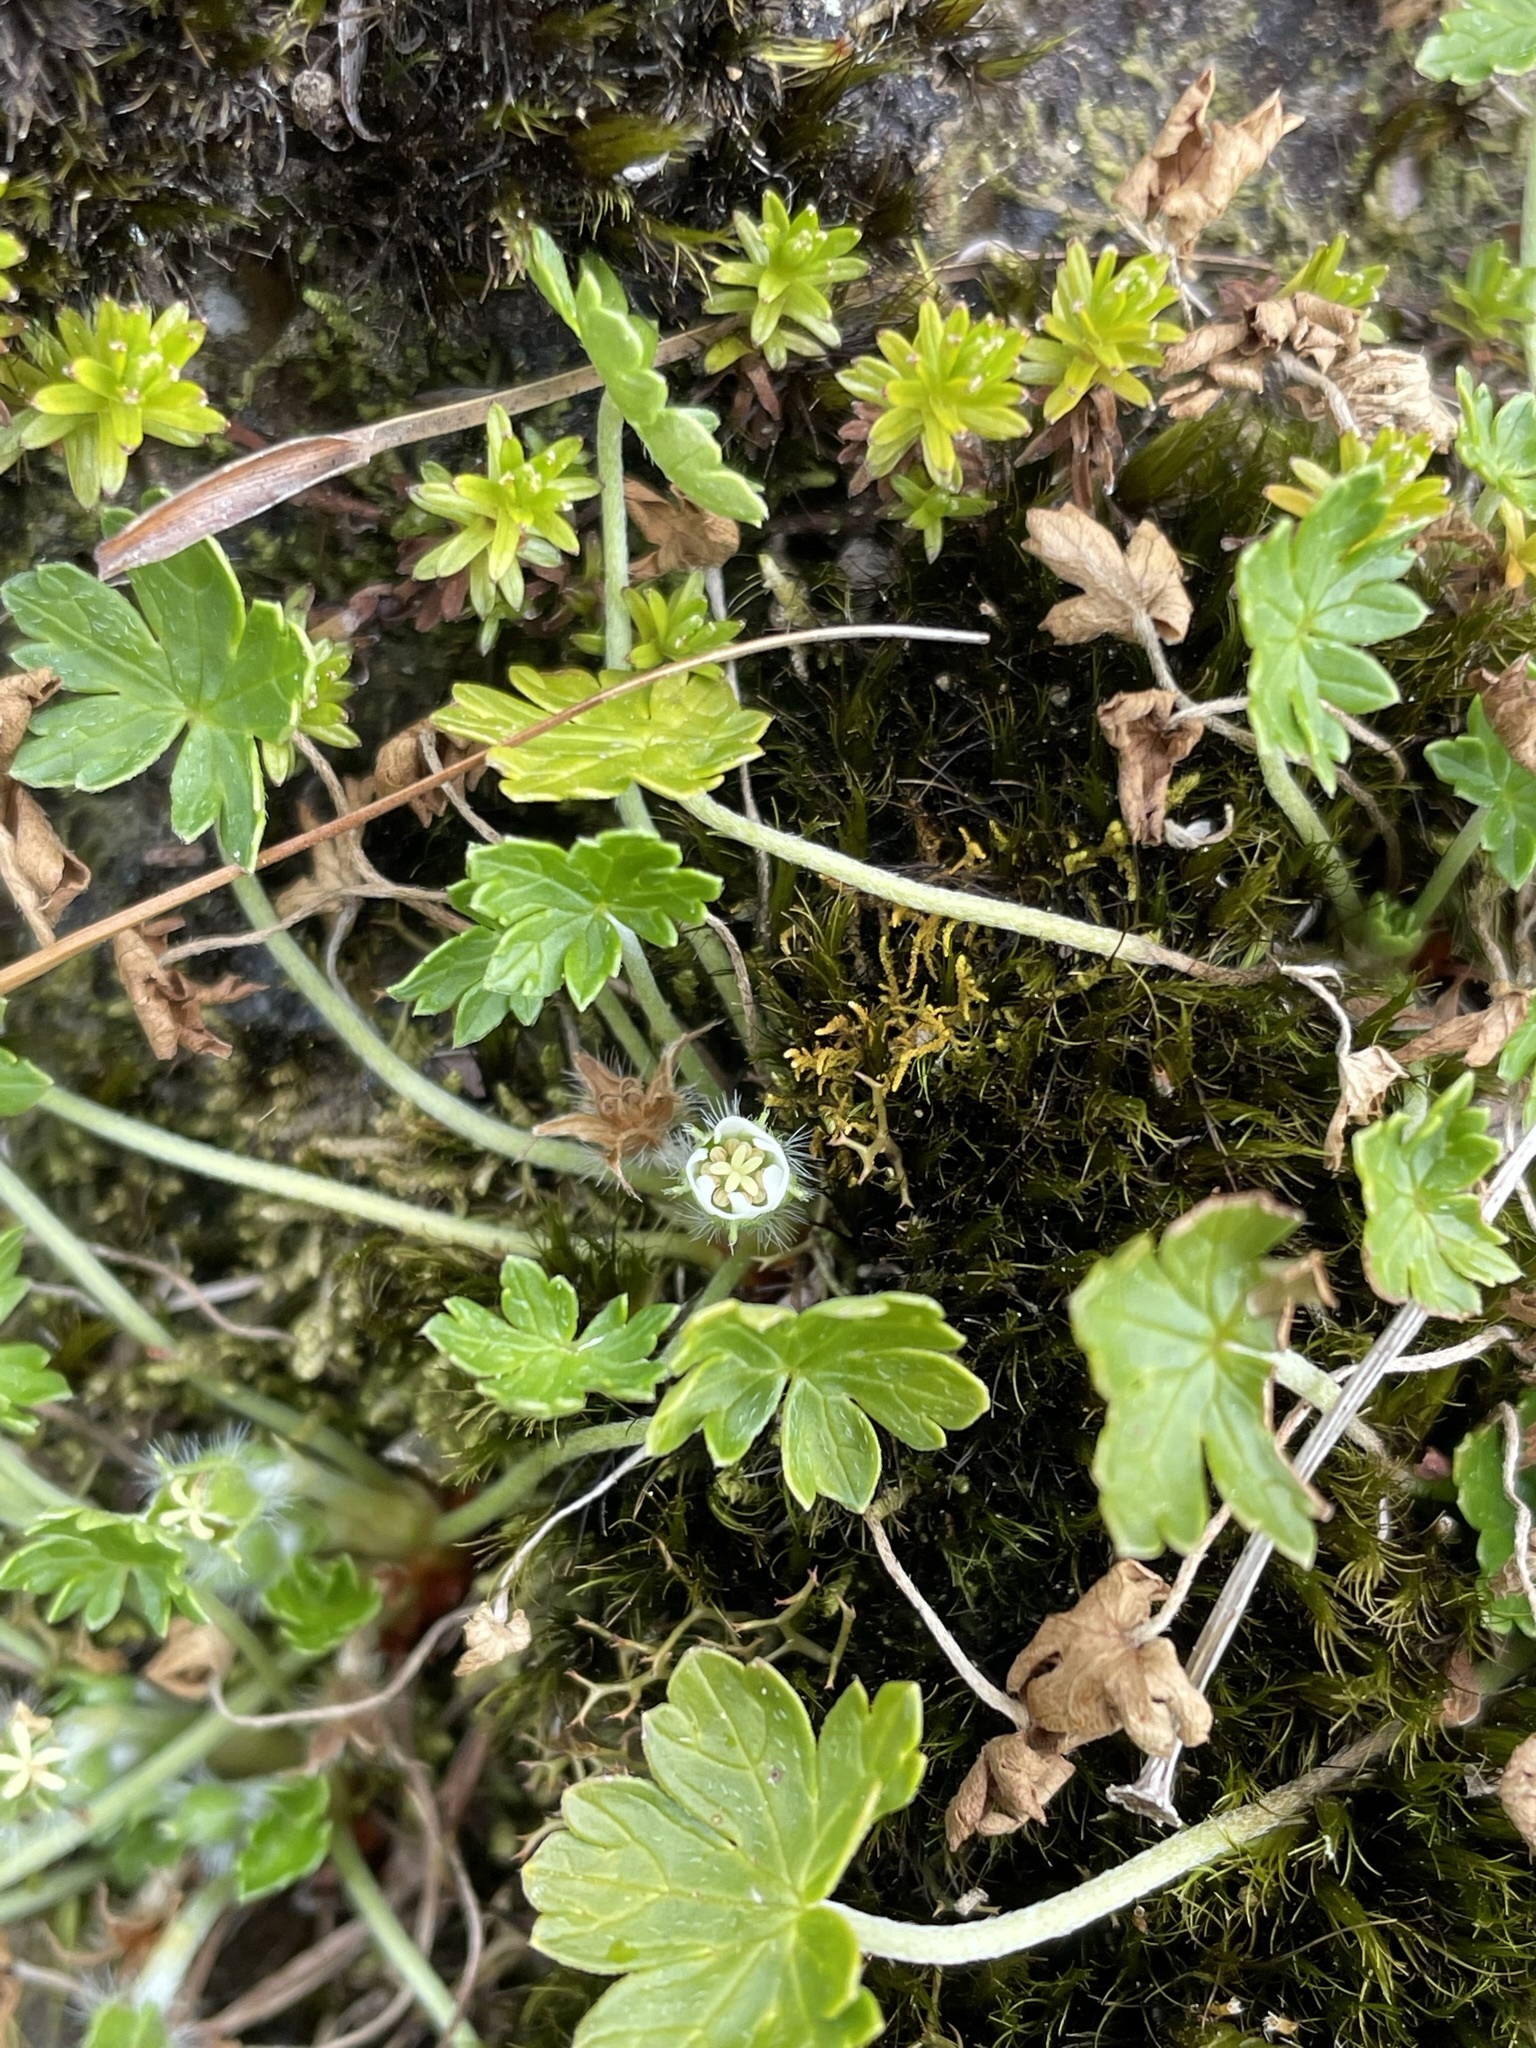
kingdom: Plantae
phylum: Tracheophyta
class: Magnoliopsida
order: Geraniales
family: Geraniaceae
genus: Geranium
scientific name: Geranium brevicaule
